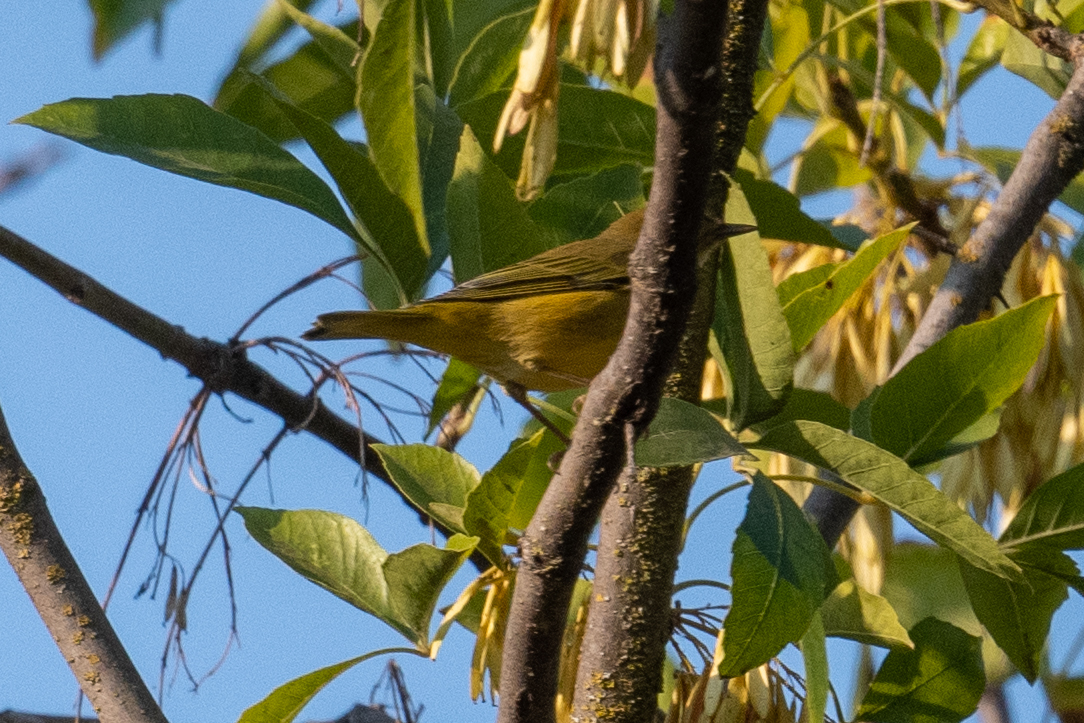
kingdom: Animalia
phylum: Chordata
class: Aves
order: Passeriformes
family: Parulidae
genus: Setophaga
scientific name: Setophaga petechia
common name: Yellow warbler
